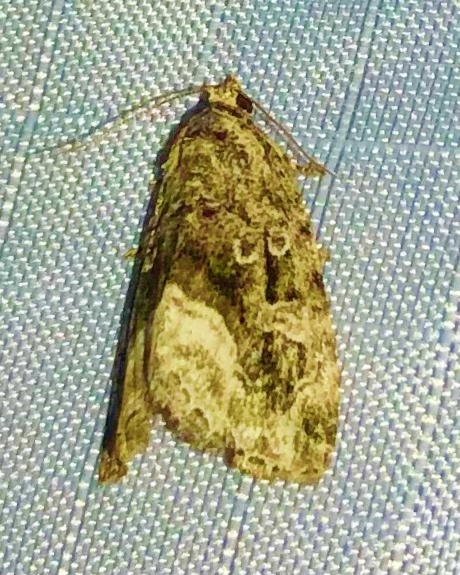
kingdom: Animalia
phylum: Arthropoda
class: Insecta
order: Lepidoptera
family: Noctuidae
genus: Protodeltote
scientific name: Protodeltote muscosula
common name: Large mossy glyph
